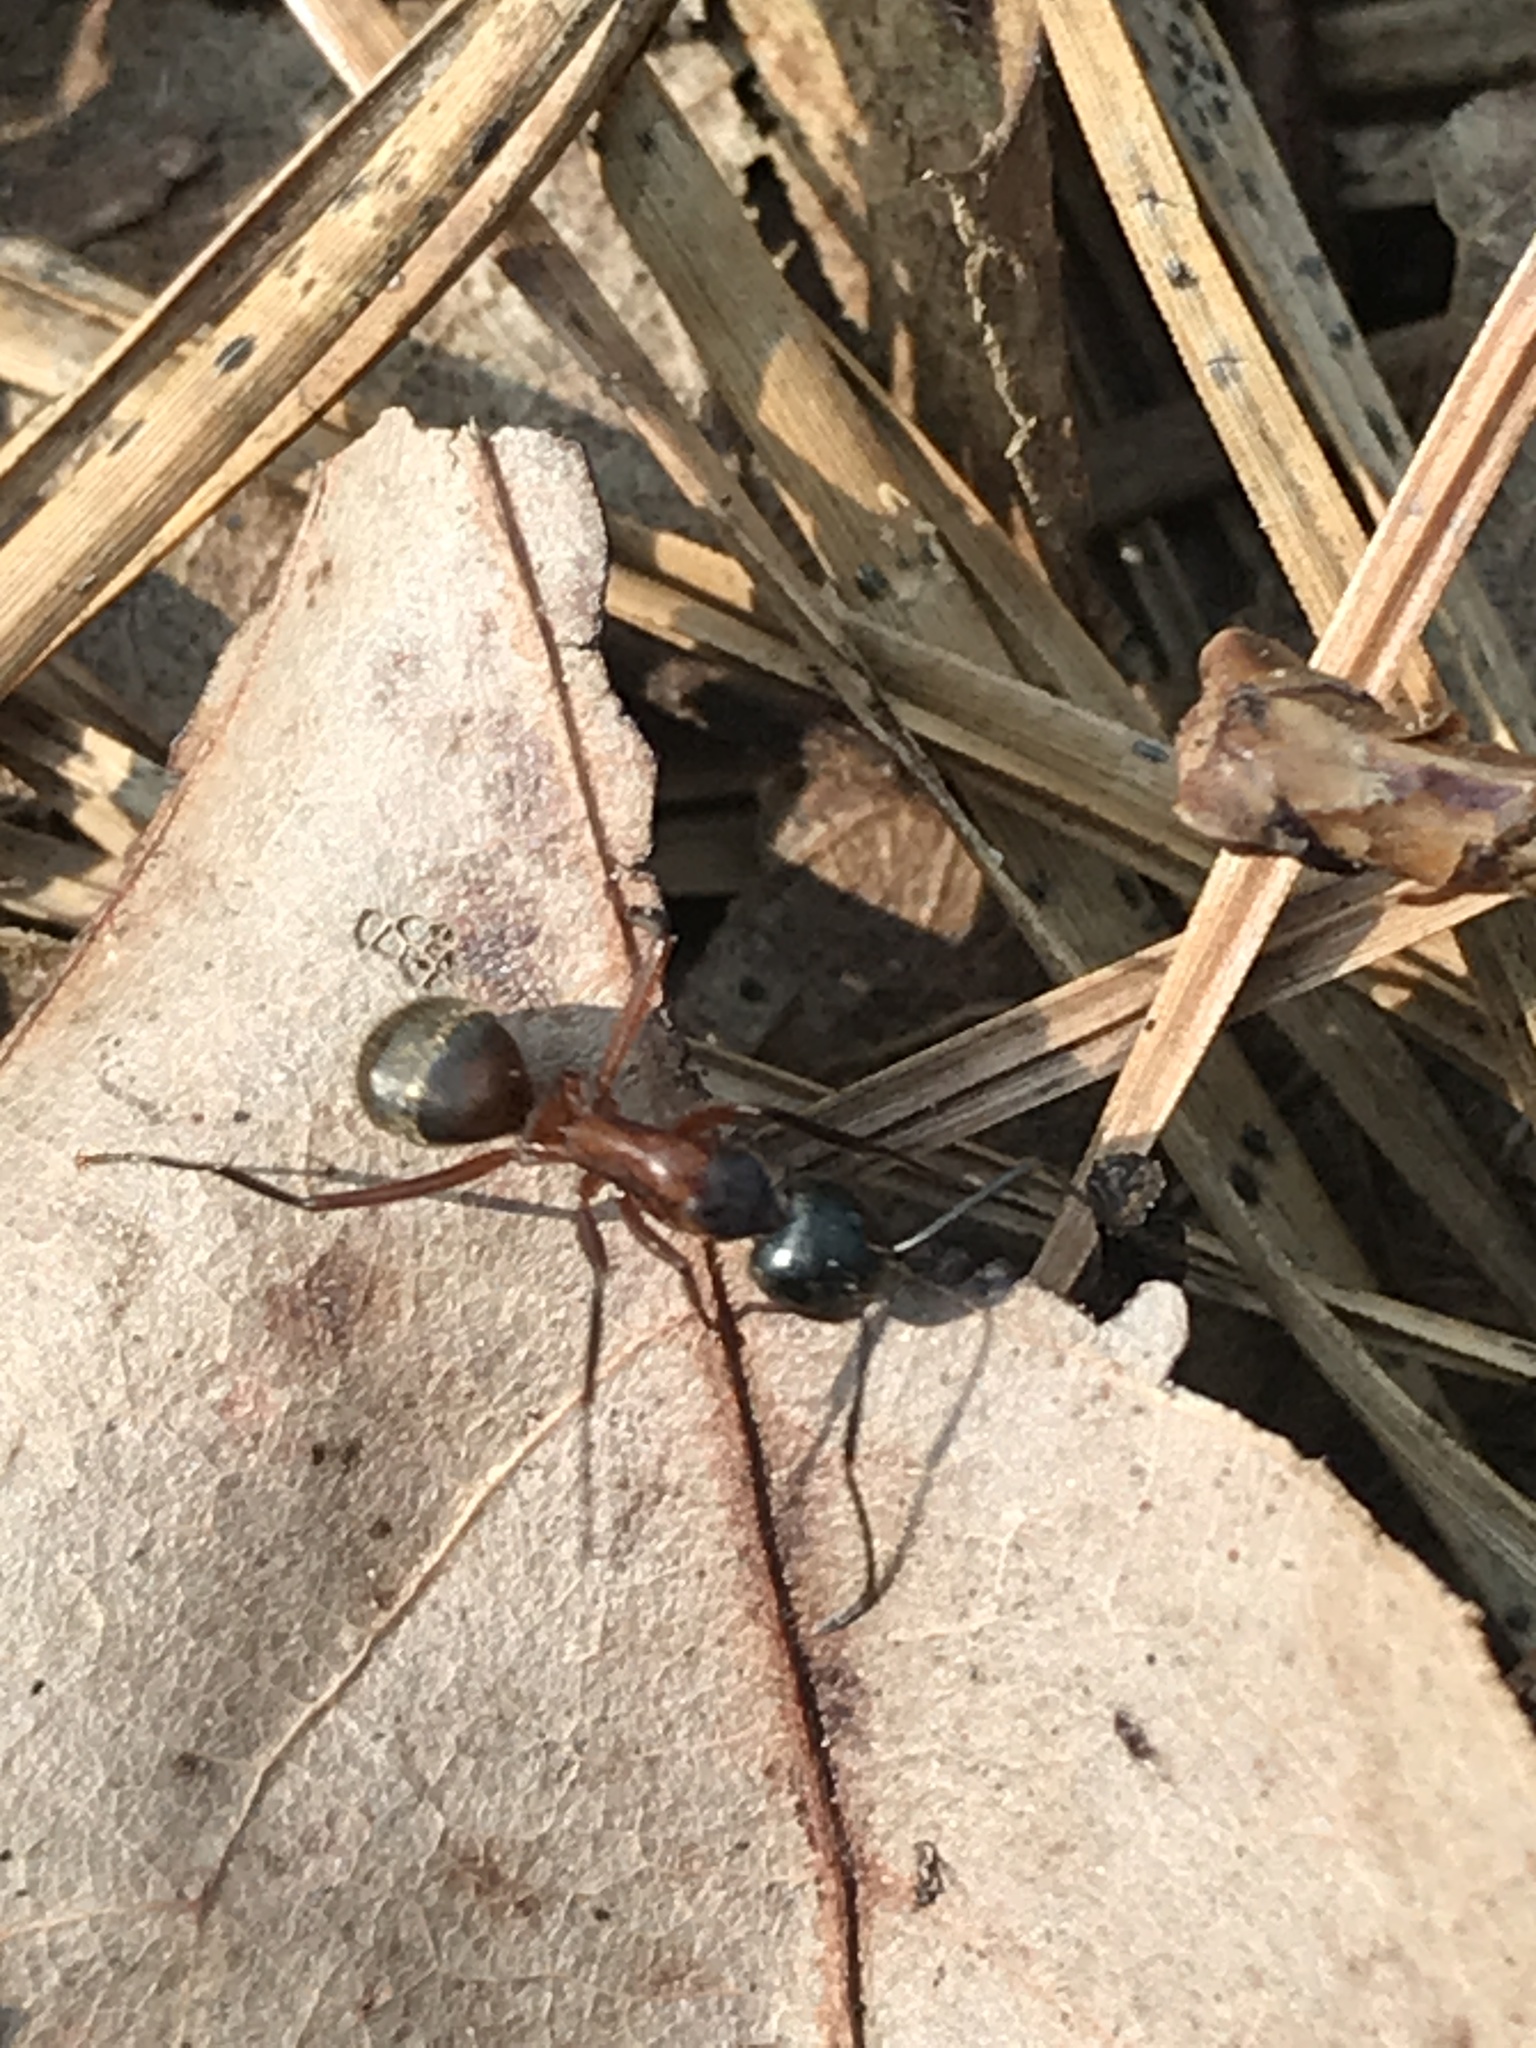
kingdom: Animalia
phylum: Arthropoda
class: Insecta
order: Hymenoptera
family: Formicidae
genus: Camponotus
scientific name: Camponotus chromaiodes
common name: Red carpenter ant
